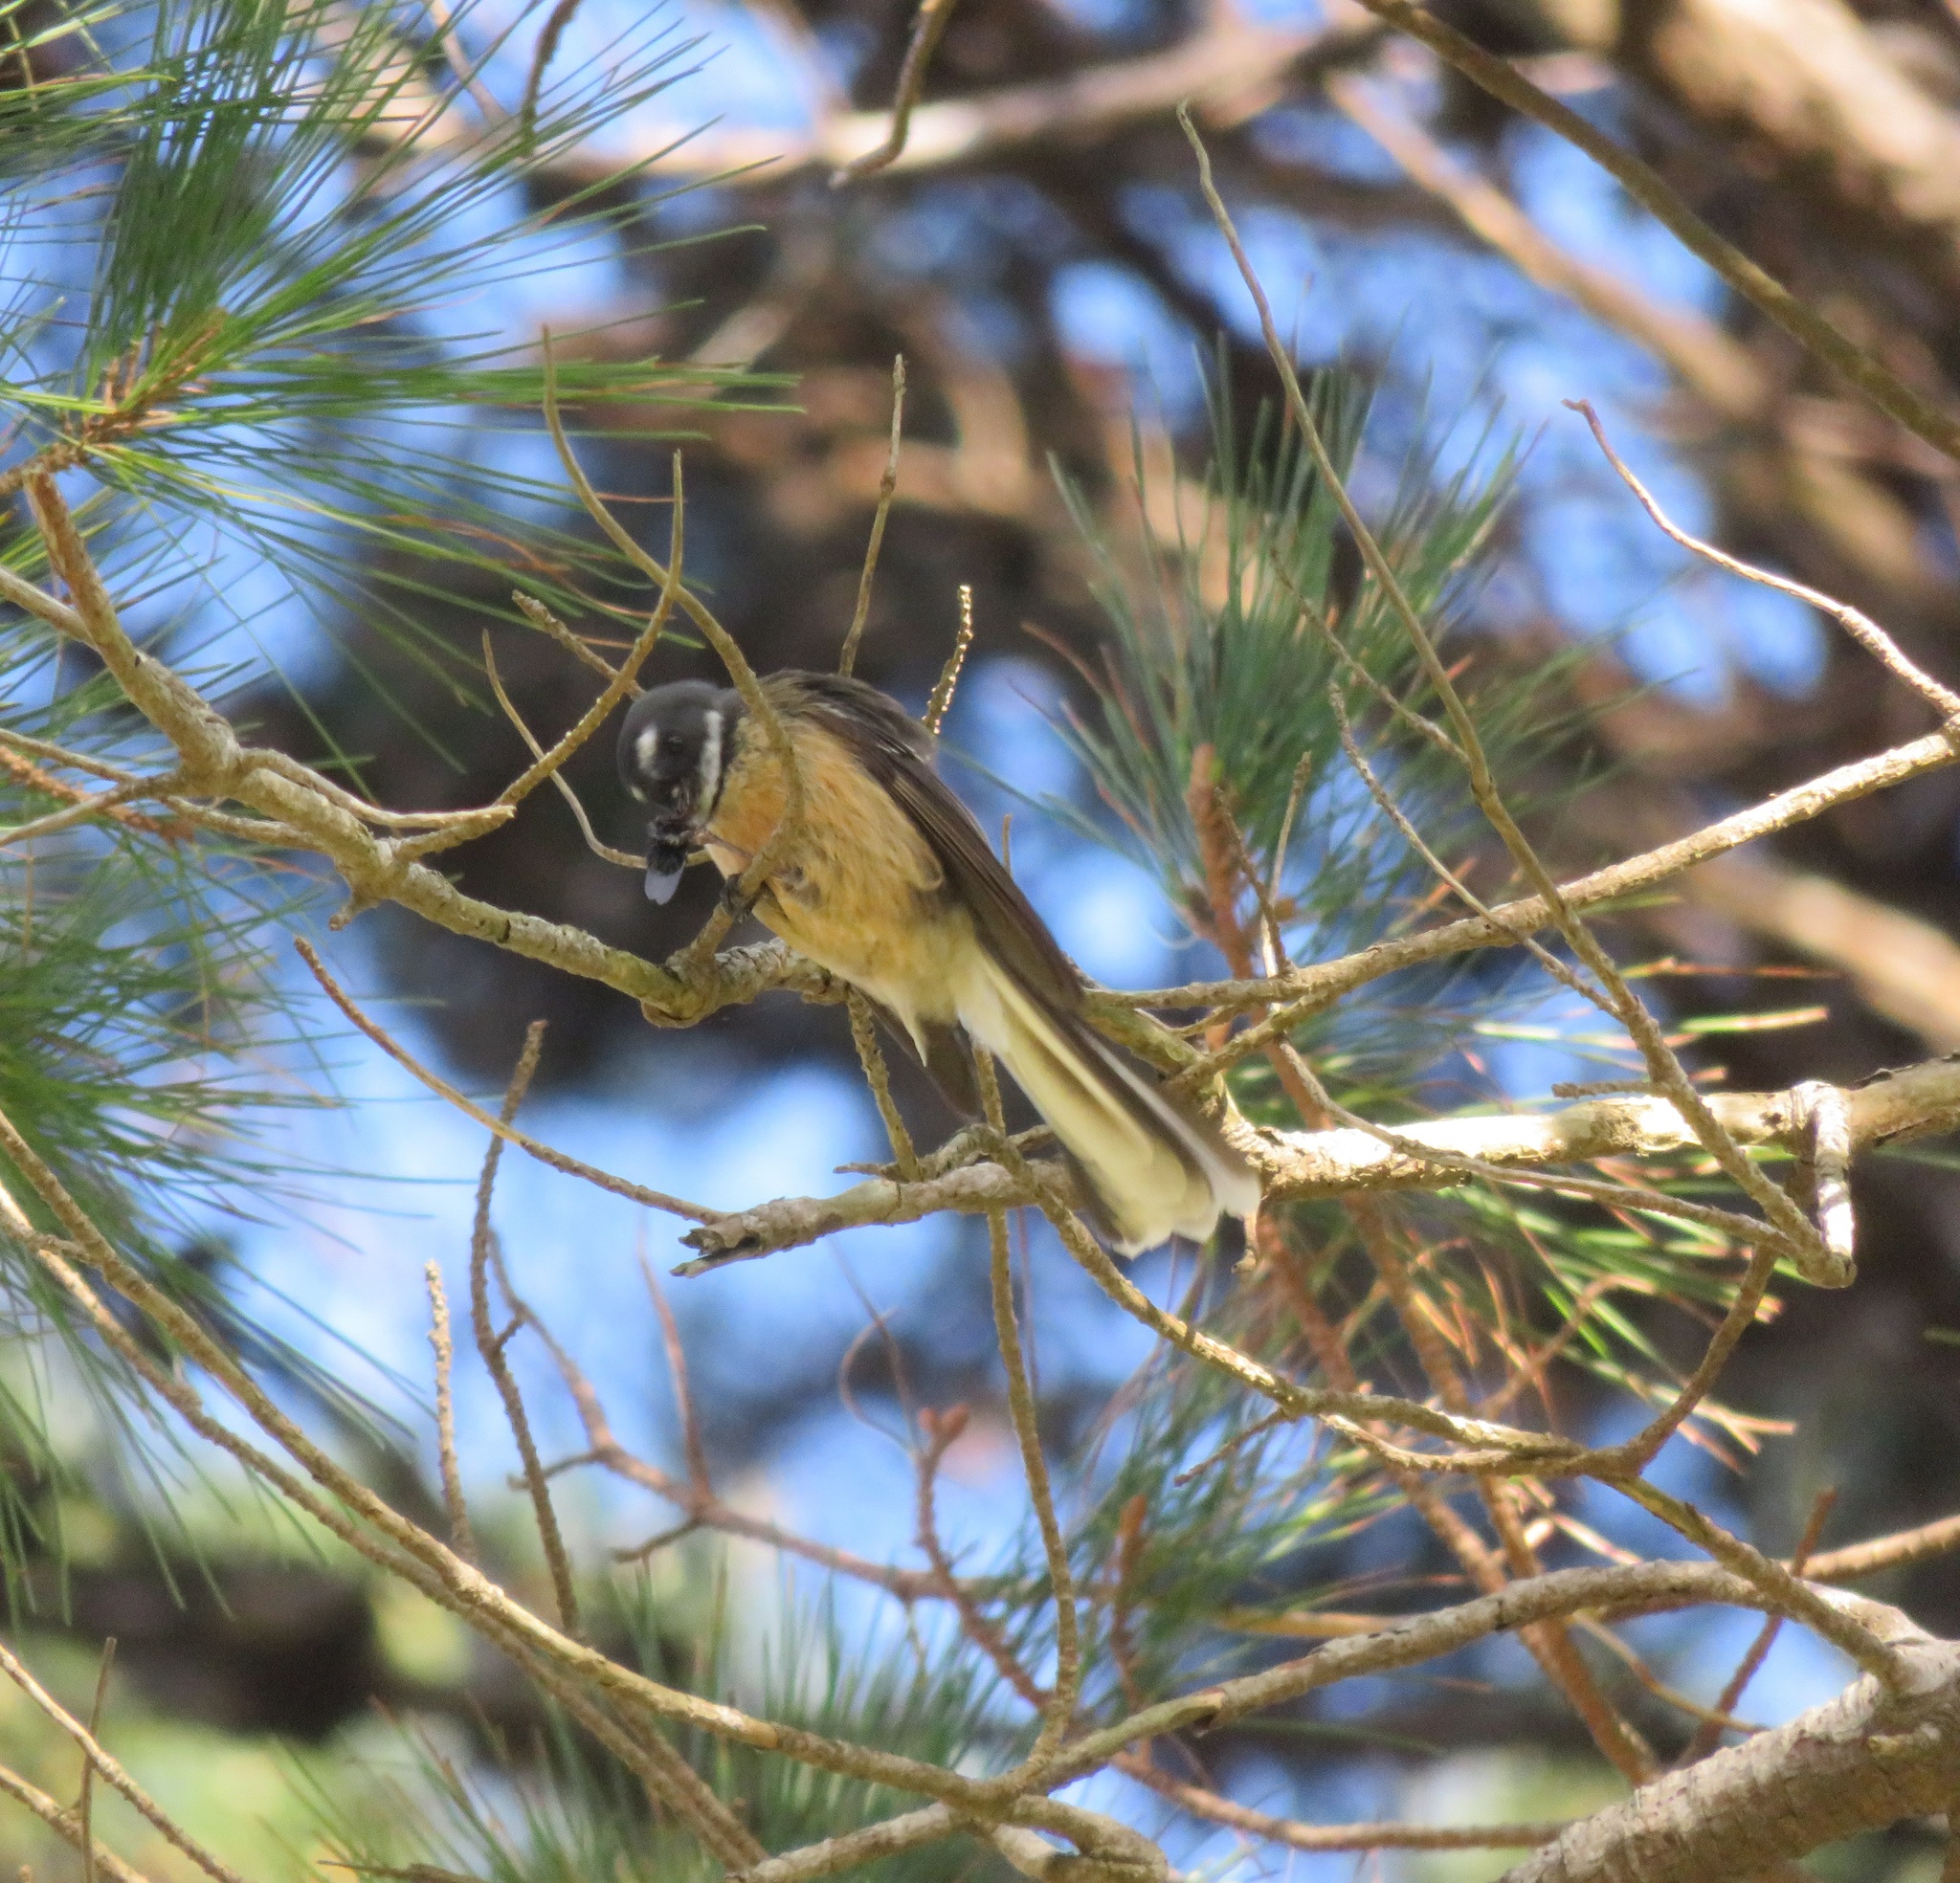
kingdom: Animalia
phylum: Chordata
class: Aves
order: Passeriformes
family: Rhipiduridae
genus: Rhipidura
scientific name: Rhipidura fuliginosa
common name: New zealand fantail
